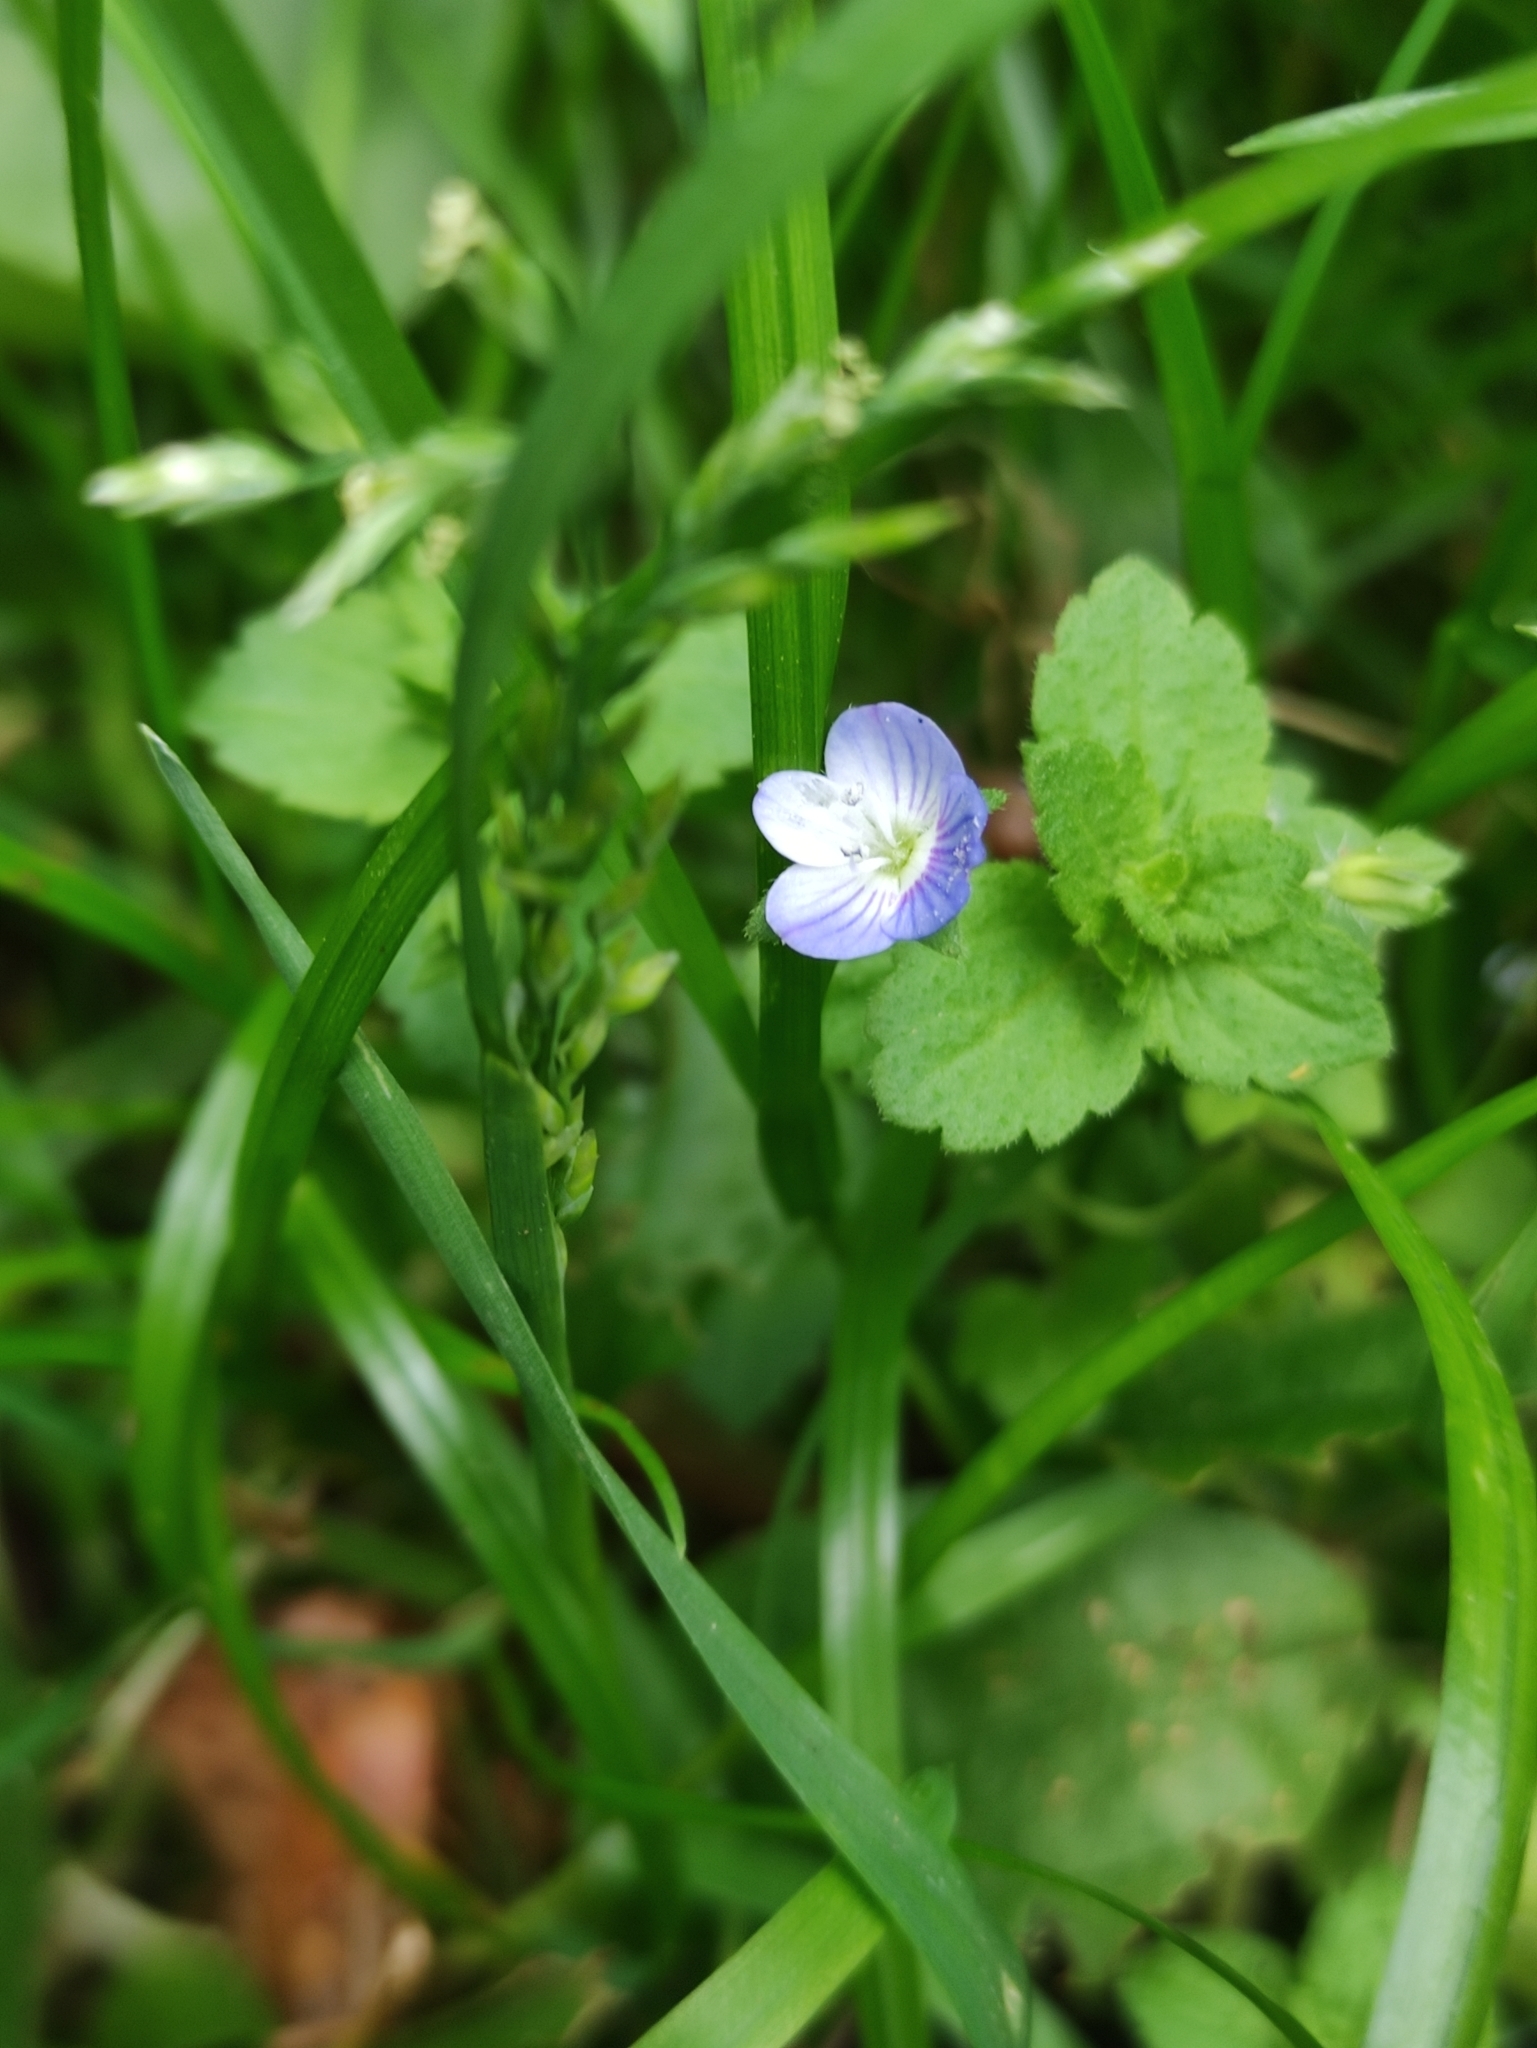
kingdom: Plantae
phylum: Tracheophyta
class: Magnoliopsida
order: Lamiales
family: Plantaginaceae
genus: Veronica
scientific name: Veronica persica
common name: Common field-speedwell
